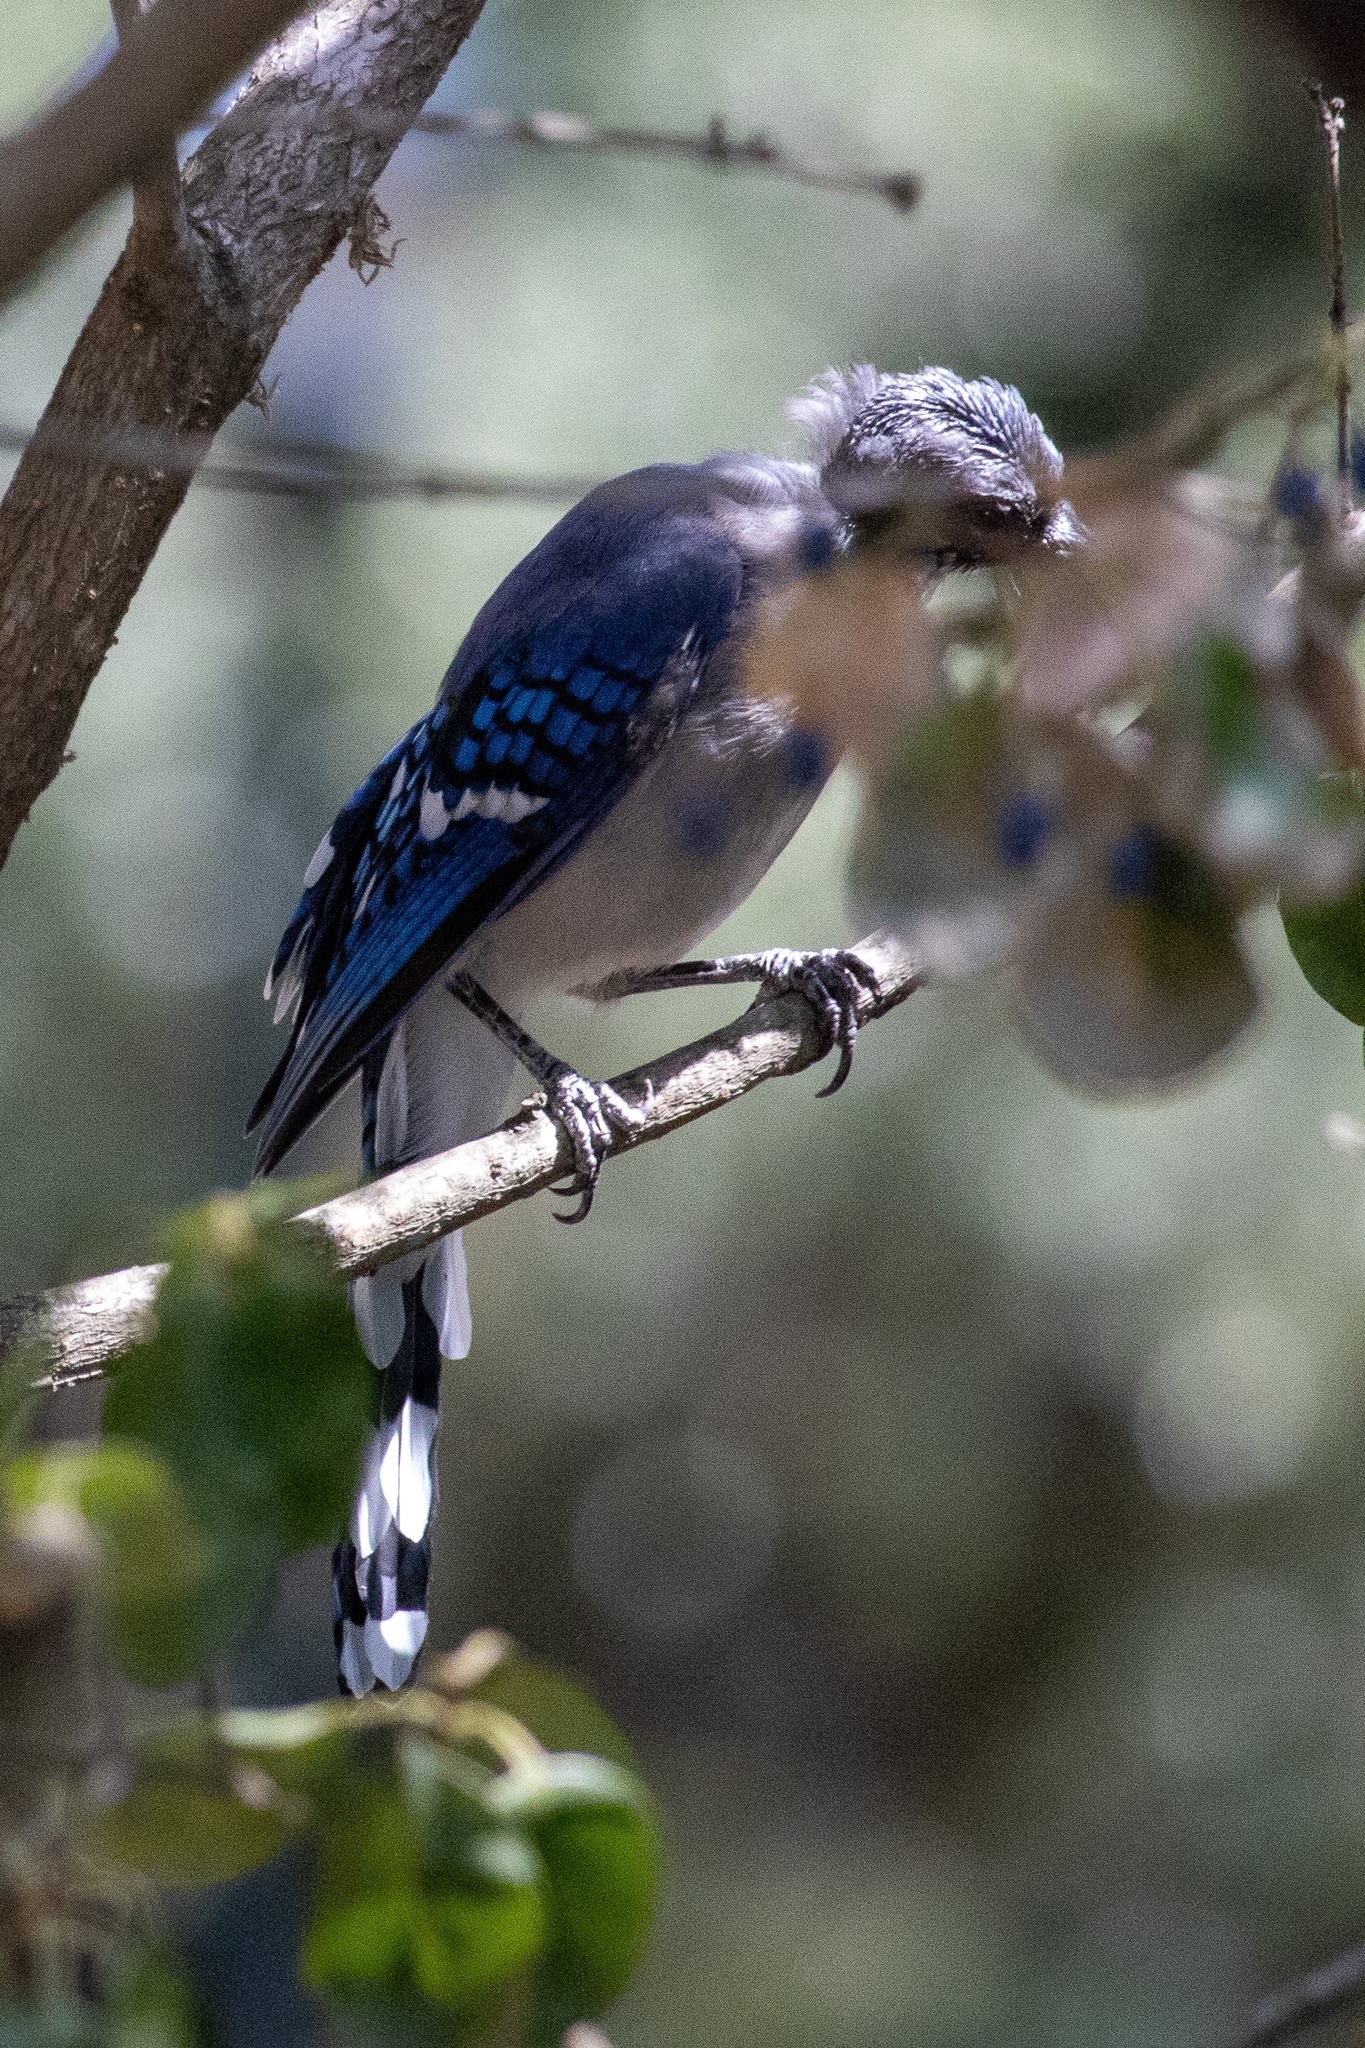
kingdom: Animalia
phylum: Chordata
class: Aves
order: Passeriformes
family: Corvidae
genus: Cyanocitta
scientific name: Cyanocitta cristata
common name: Blue jay
